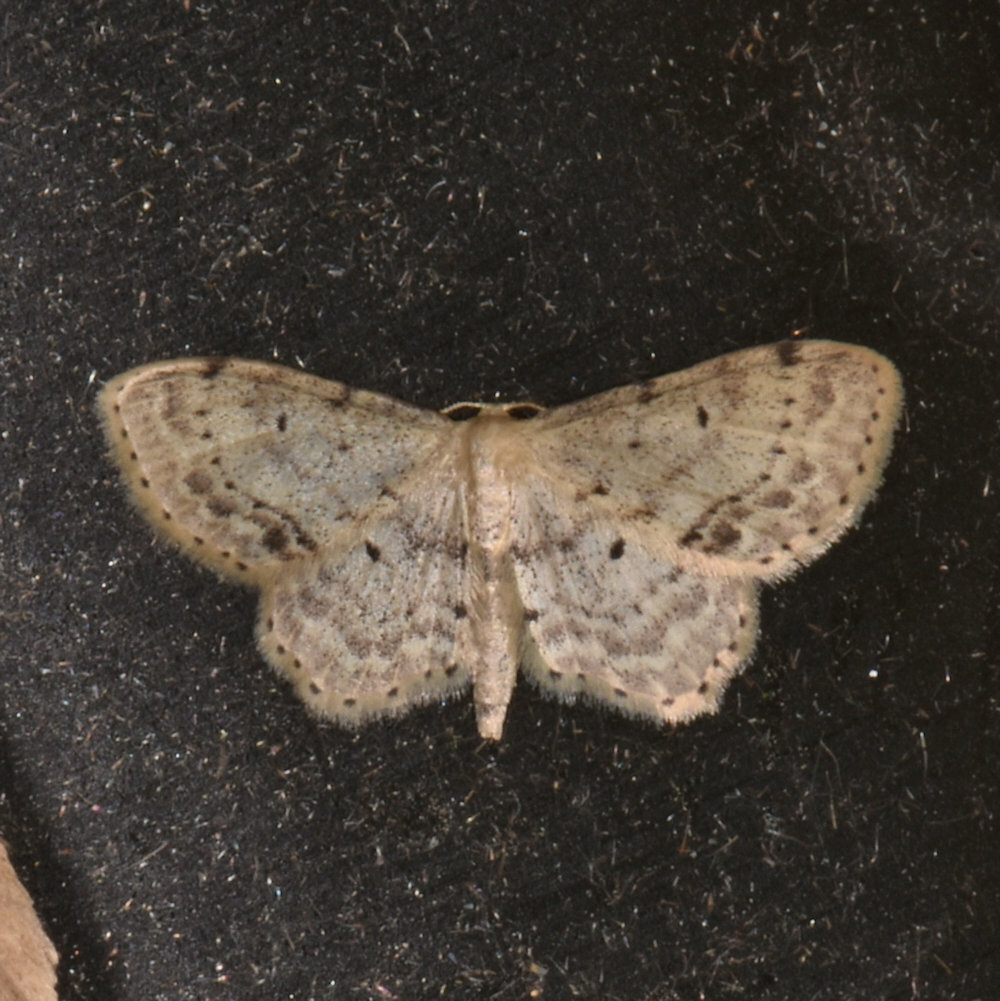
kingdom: Animalia
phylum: Arthropoda
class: Insecta
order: Lepidoptera
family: Geometridae
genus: Idaea
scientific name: Idaea dimidiata
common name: Single-dotted wave
